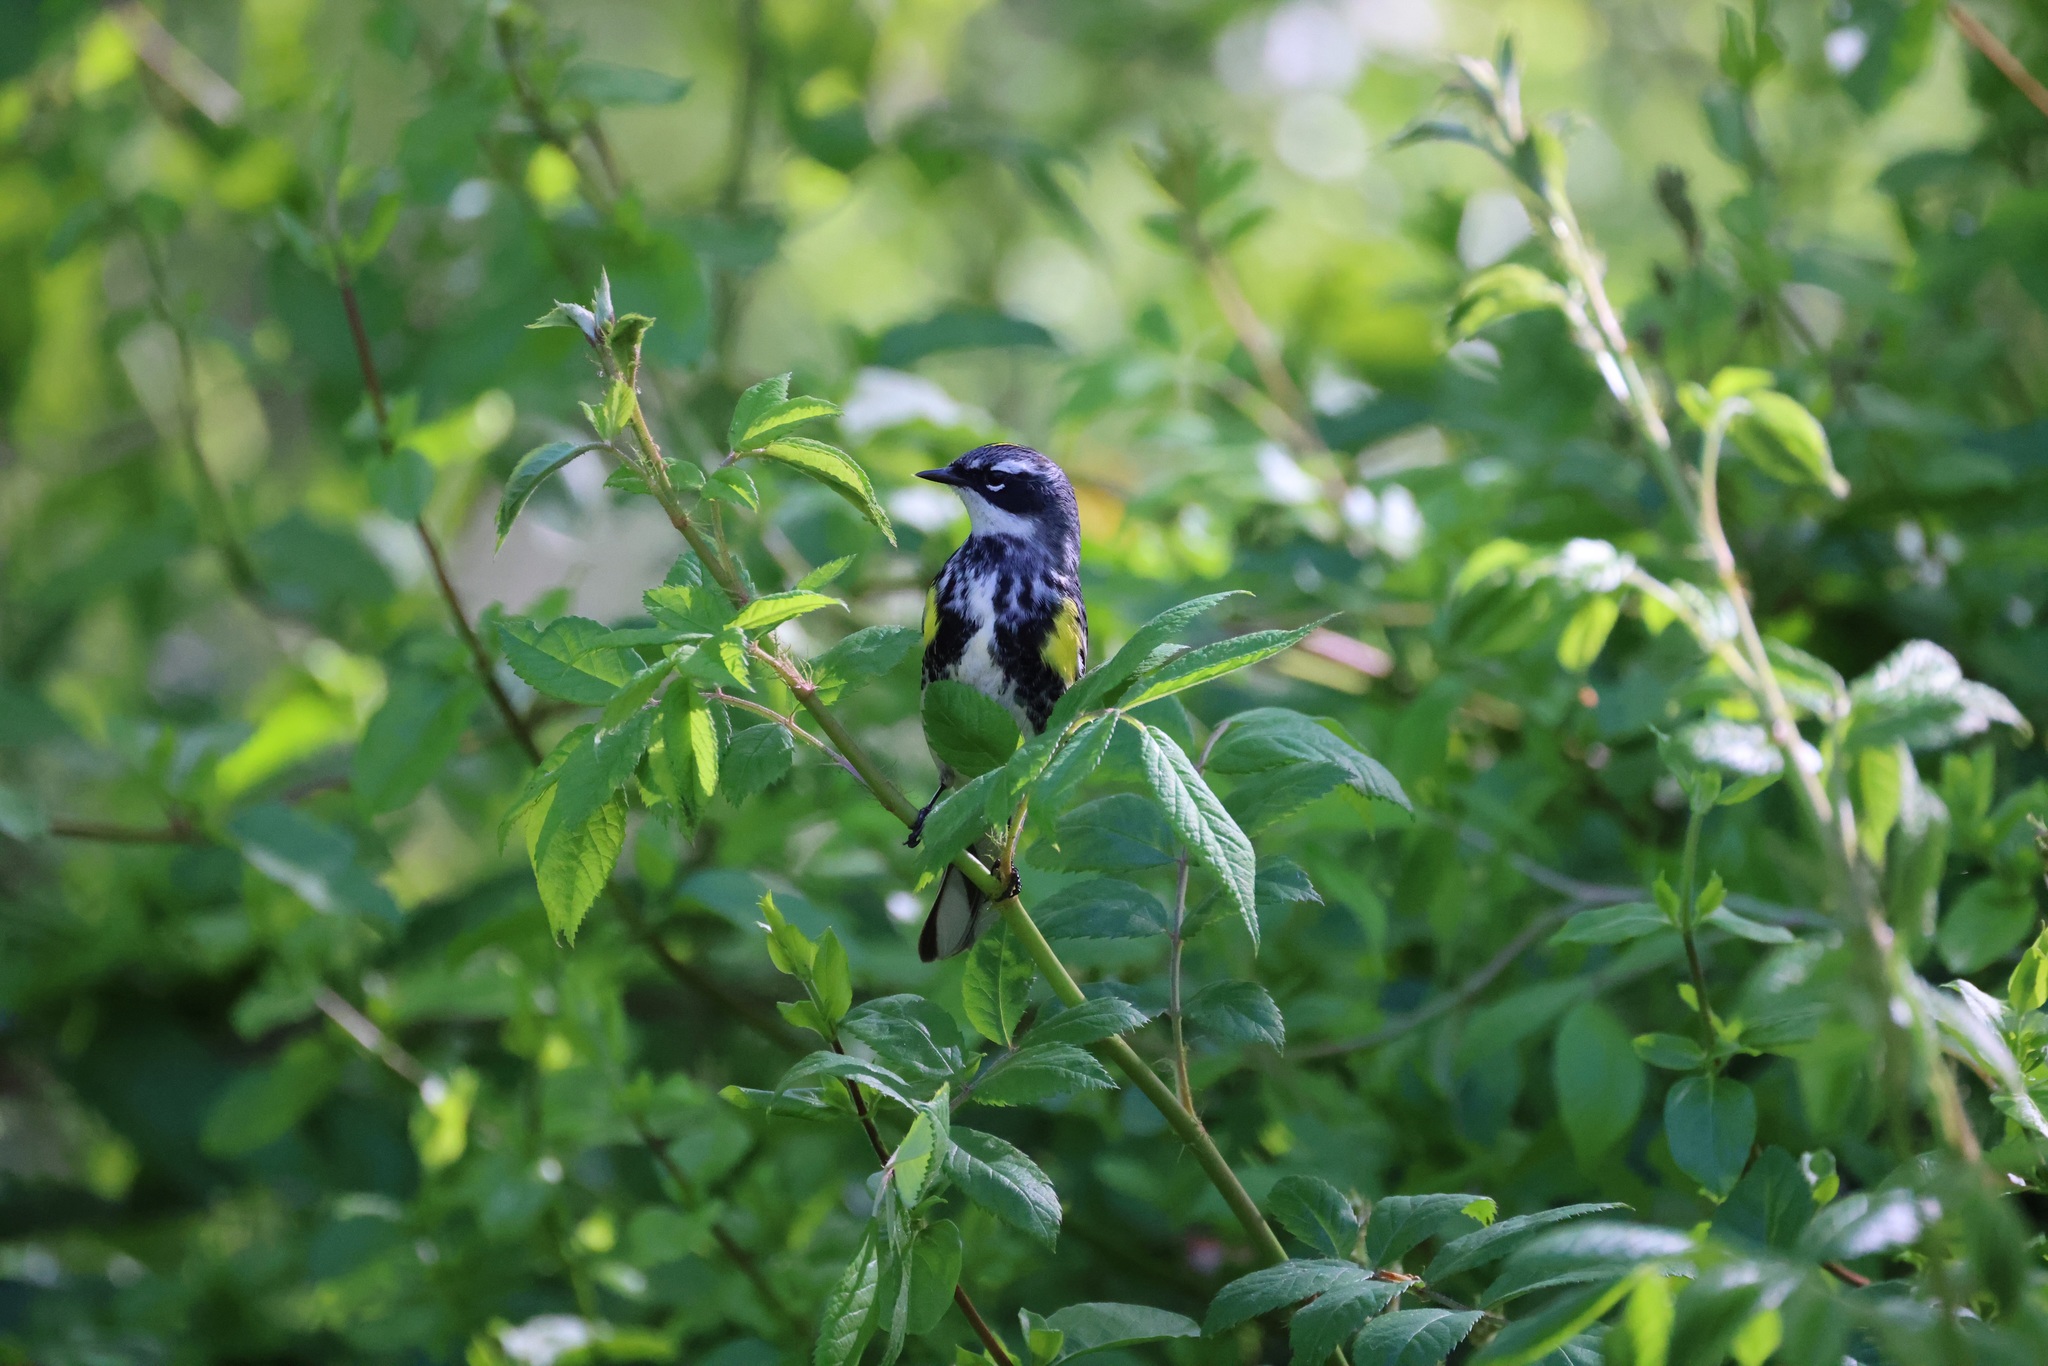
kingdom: Animalia
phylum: Chordata
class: Aves
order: Passeriformes
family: Parulidae
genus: Setophaga
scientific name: Setophaga coronata
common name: Myrtle warbler
